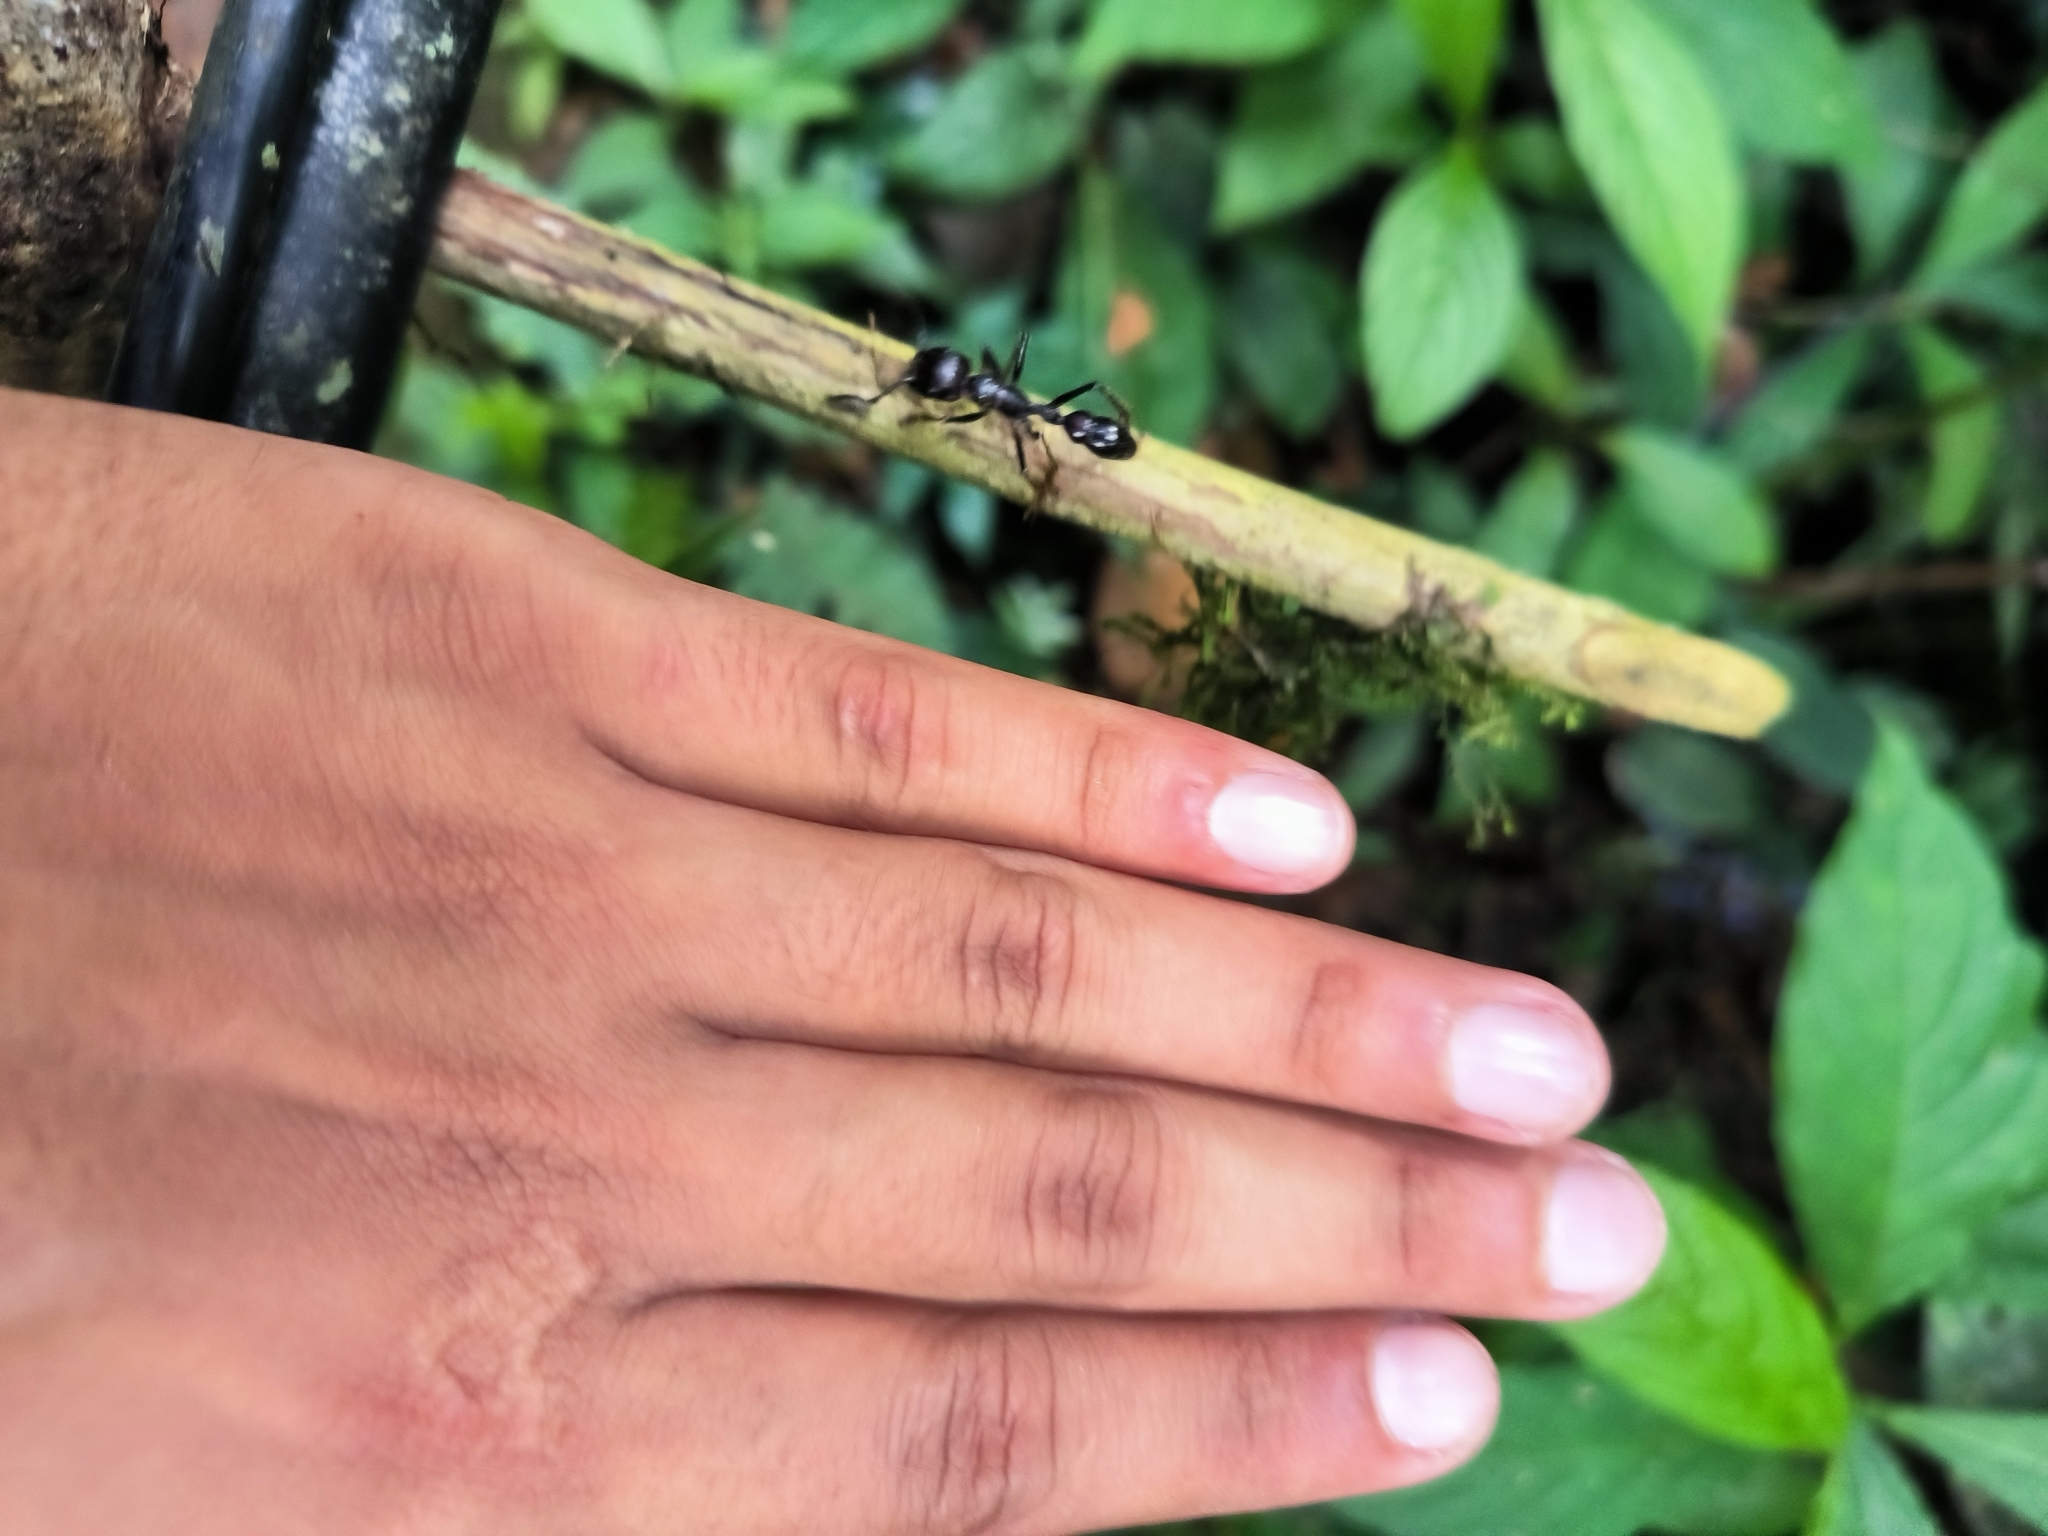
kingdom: Animalia
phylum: Arthropoda
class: Insecta
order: Hymenoptera
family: Formicidae
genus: Paraponera
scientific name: Paraponera clavata
